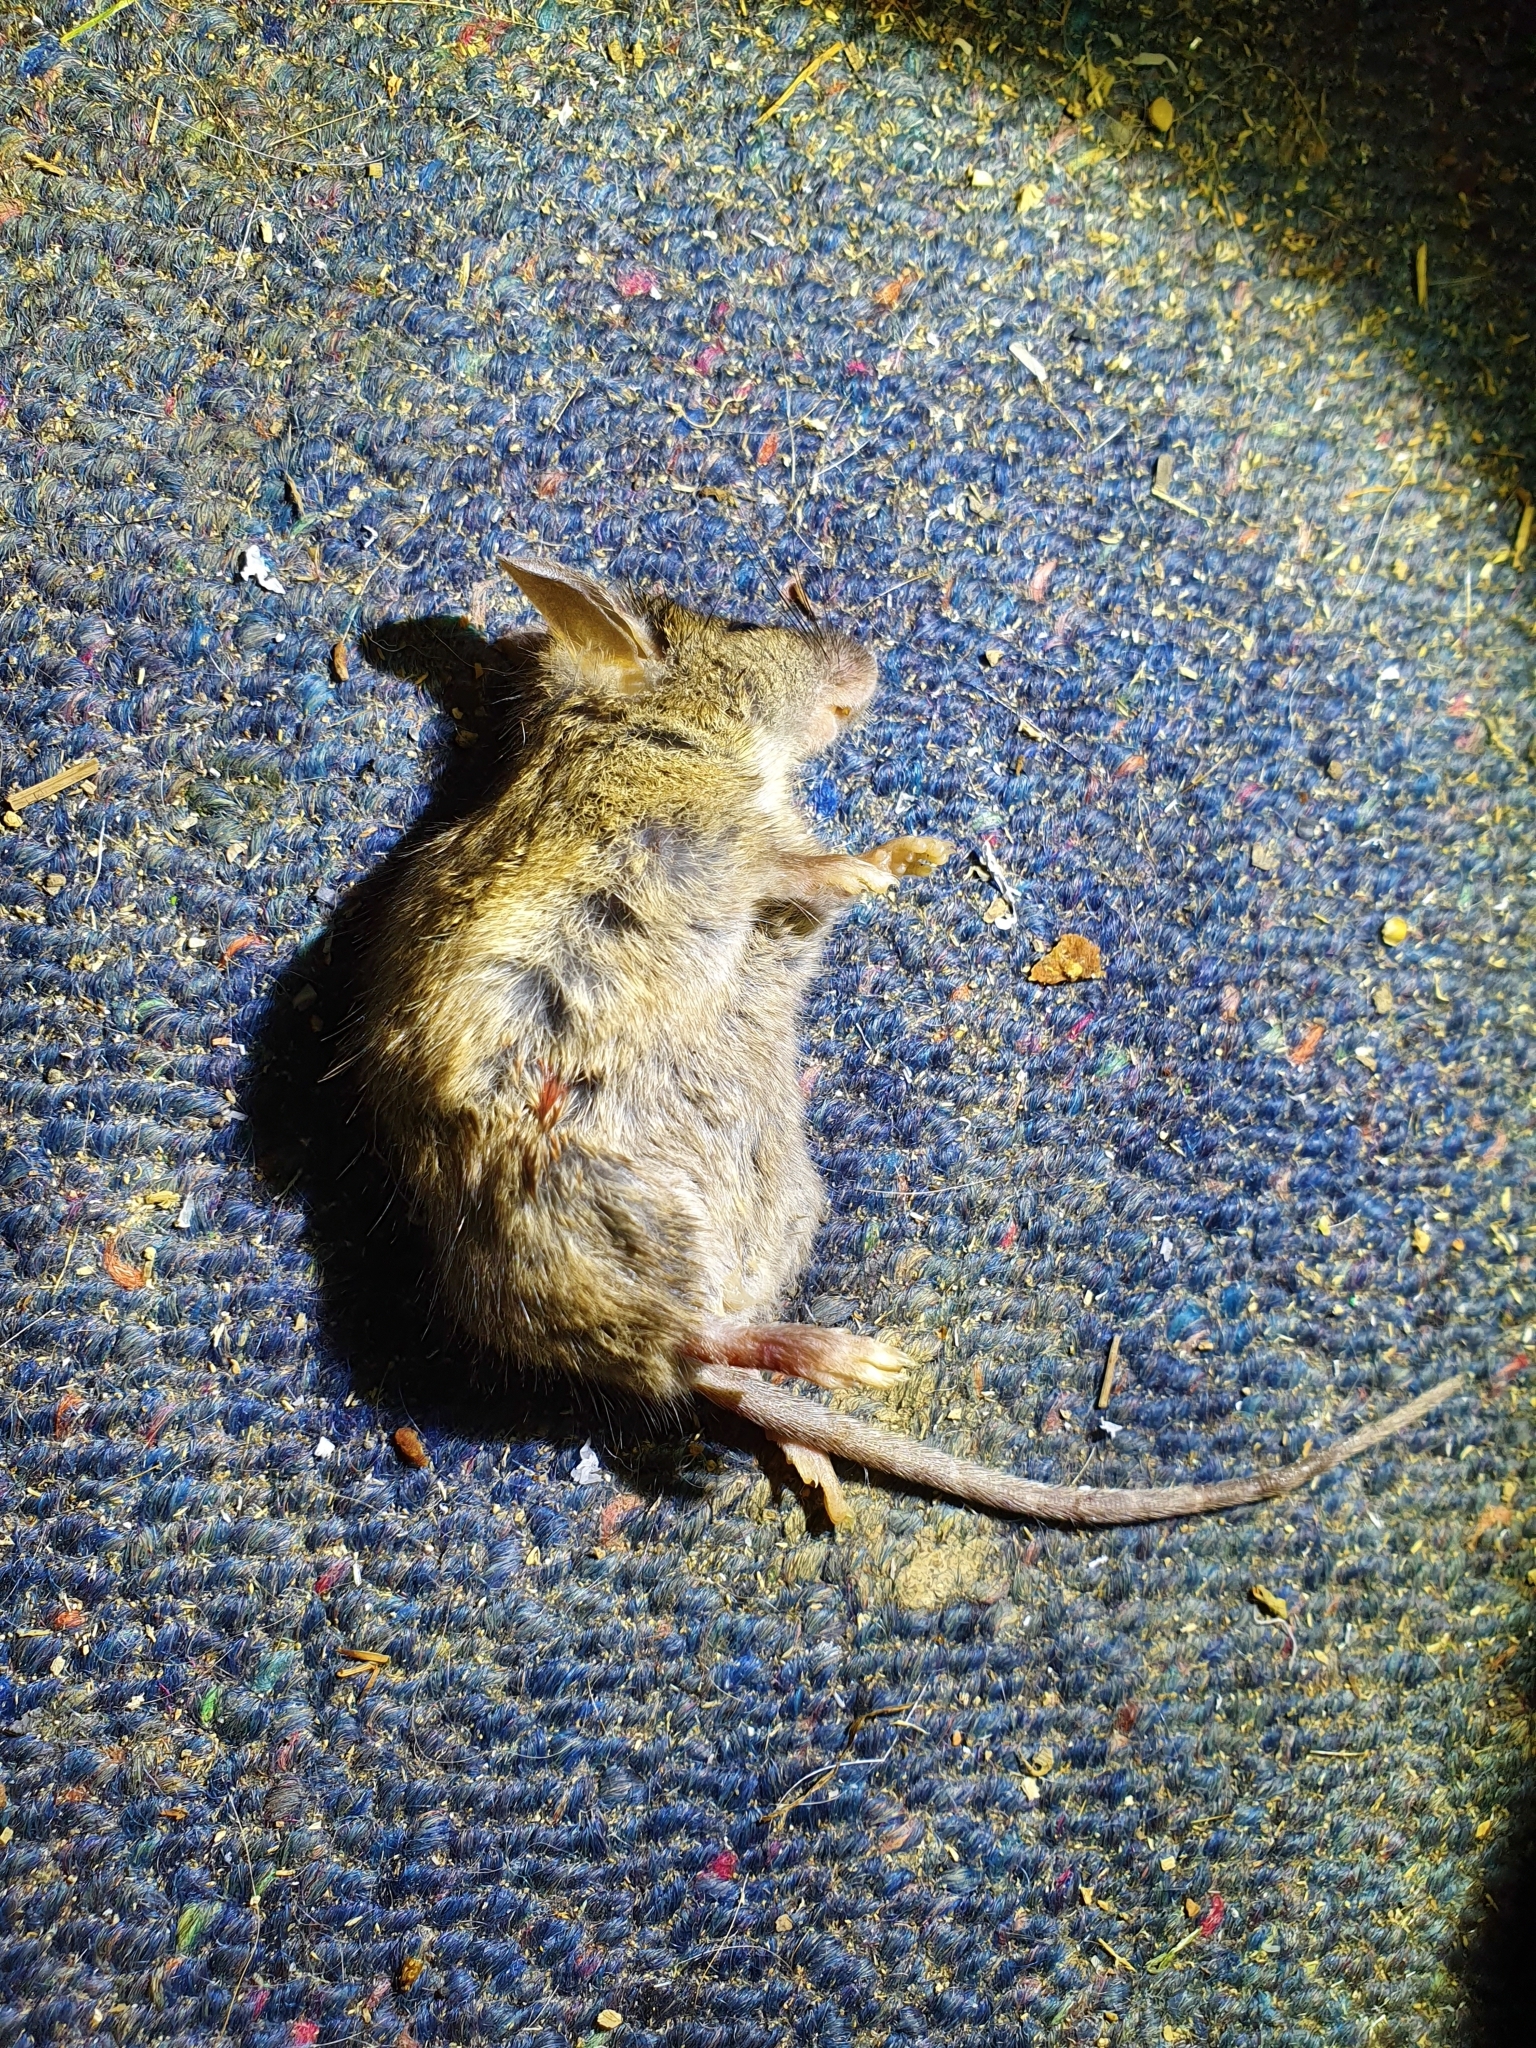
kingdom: Animalia
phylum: Chordata
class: Mammalia
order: Rodentia
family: Muridae
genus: Mus
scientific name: Mus musculus
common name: House mouse
